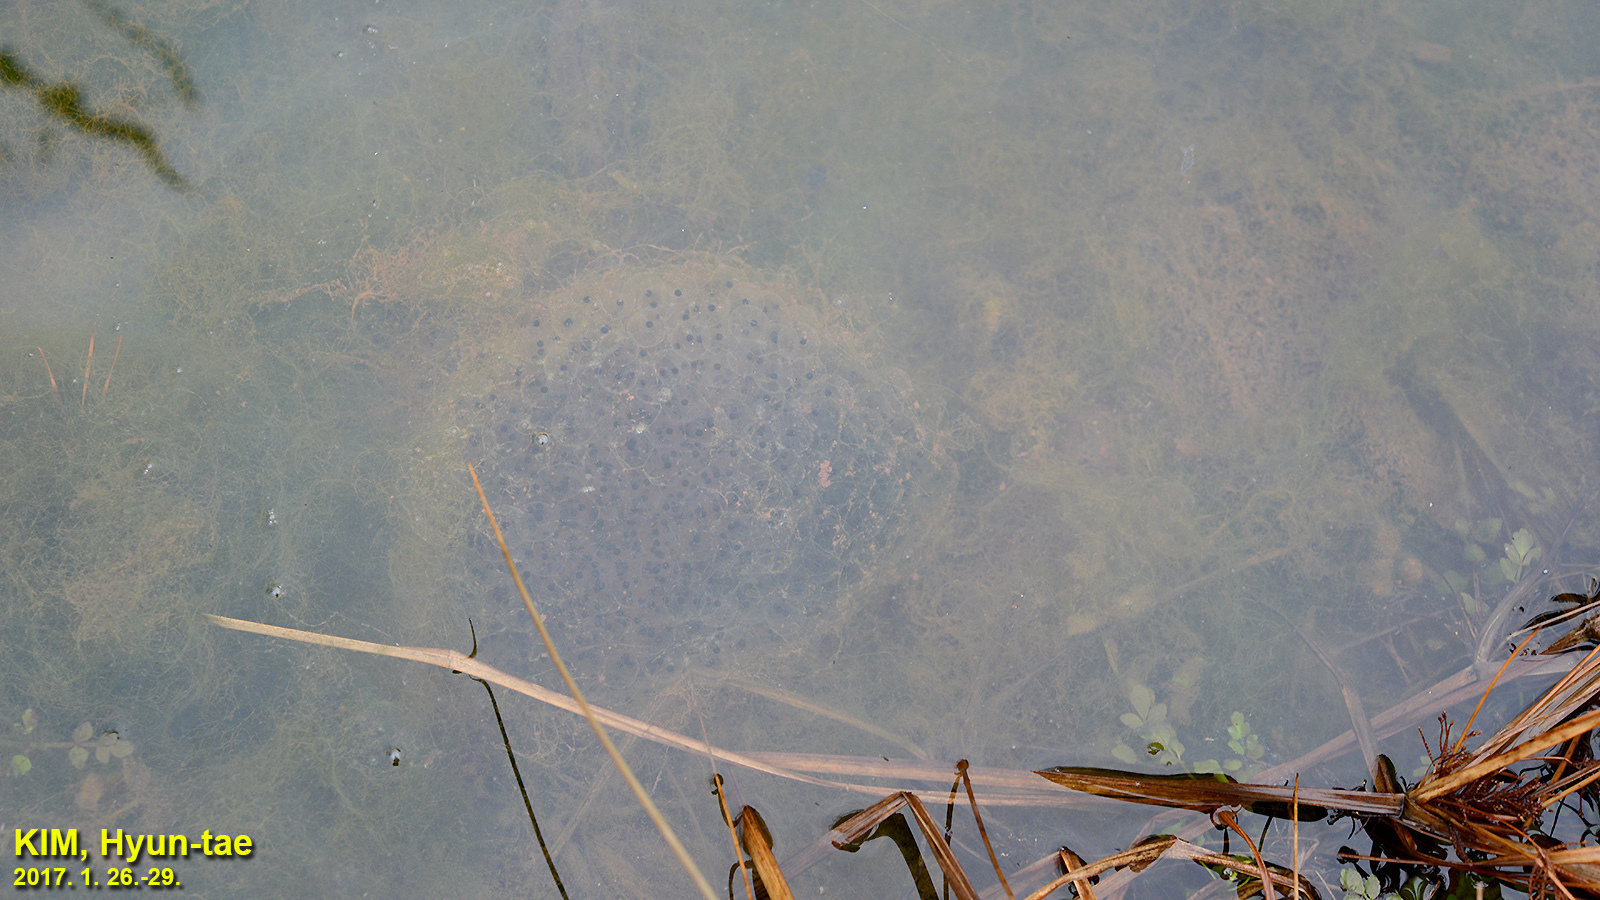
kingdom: Animalia
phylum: Chordata
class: Amphibia
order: Anura
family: Ranidae
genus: Rana
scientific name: Rana uenoi
